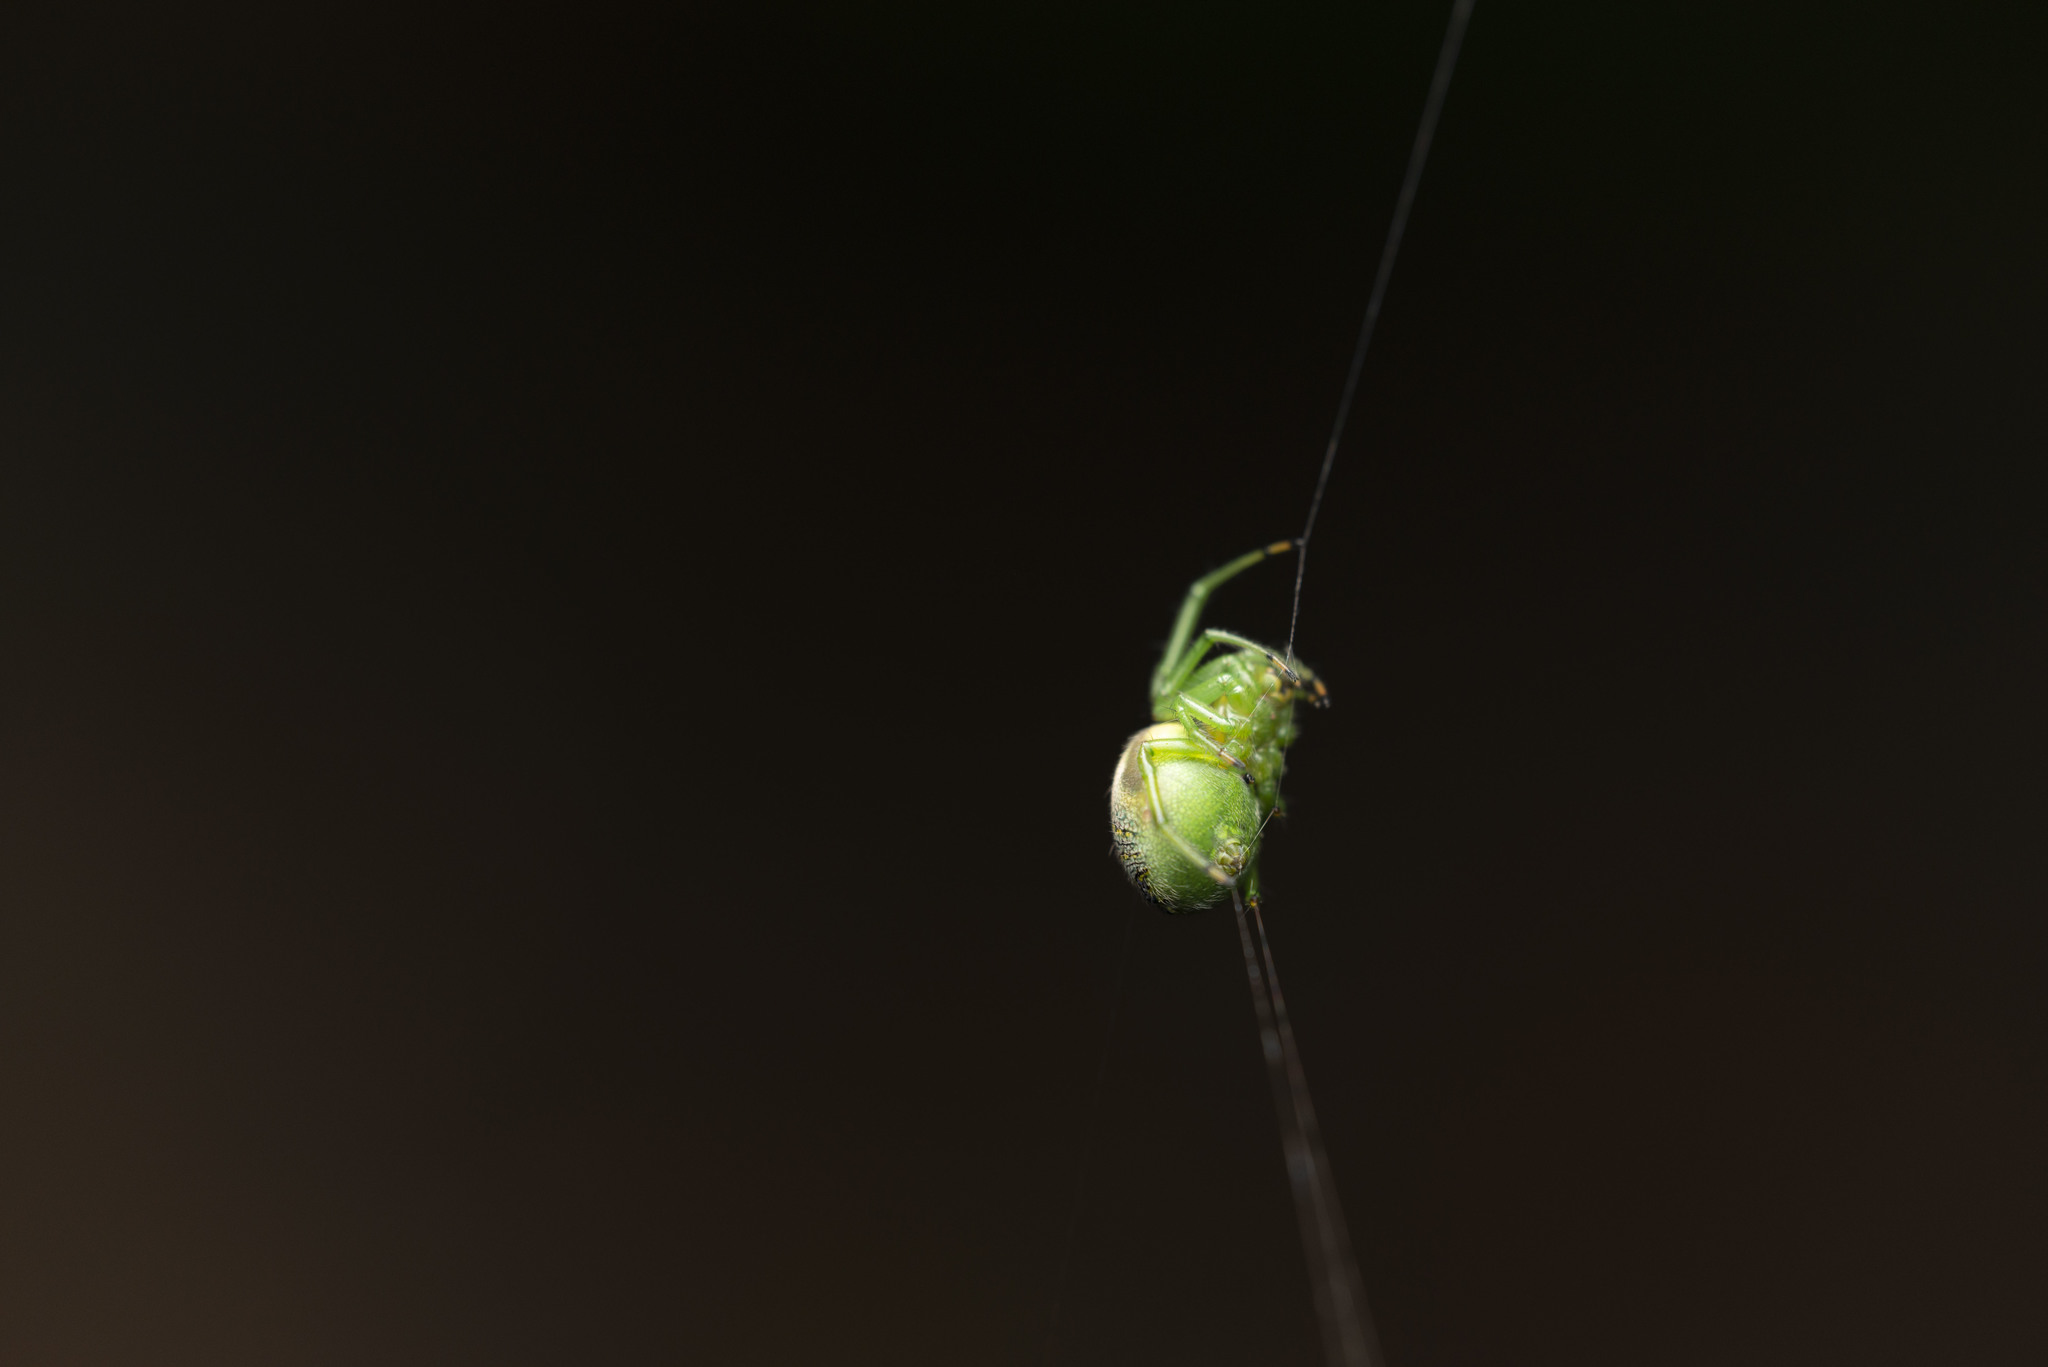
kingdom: Animalia
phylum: Arthropoda
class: Arachnida
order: Araneae
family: Araneidae
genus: Bijoaraneus
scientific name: Bijoaraneus mitificus
